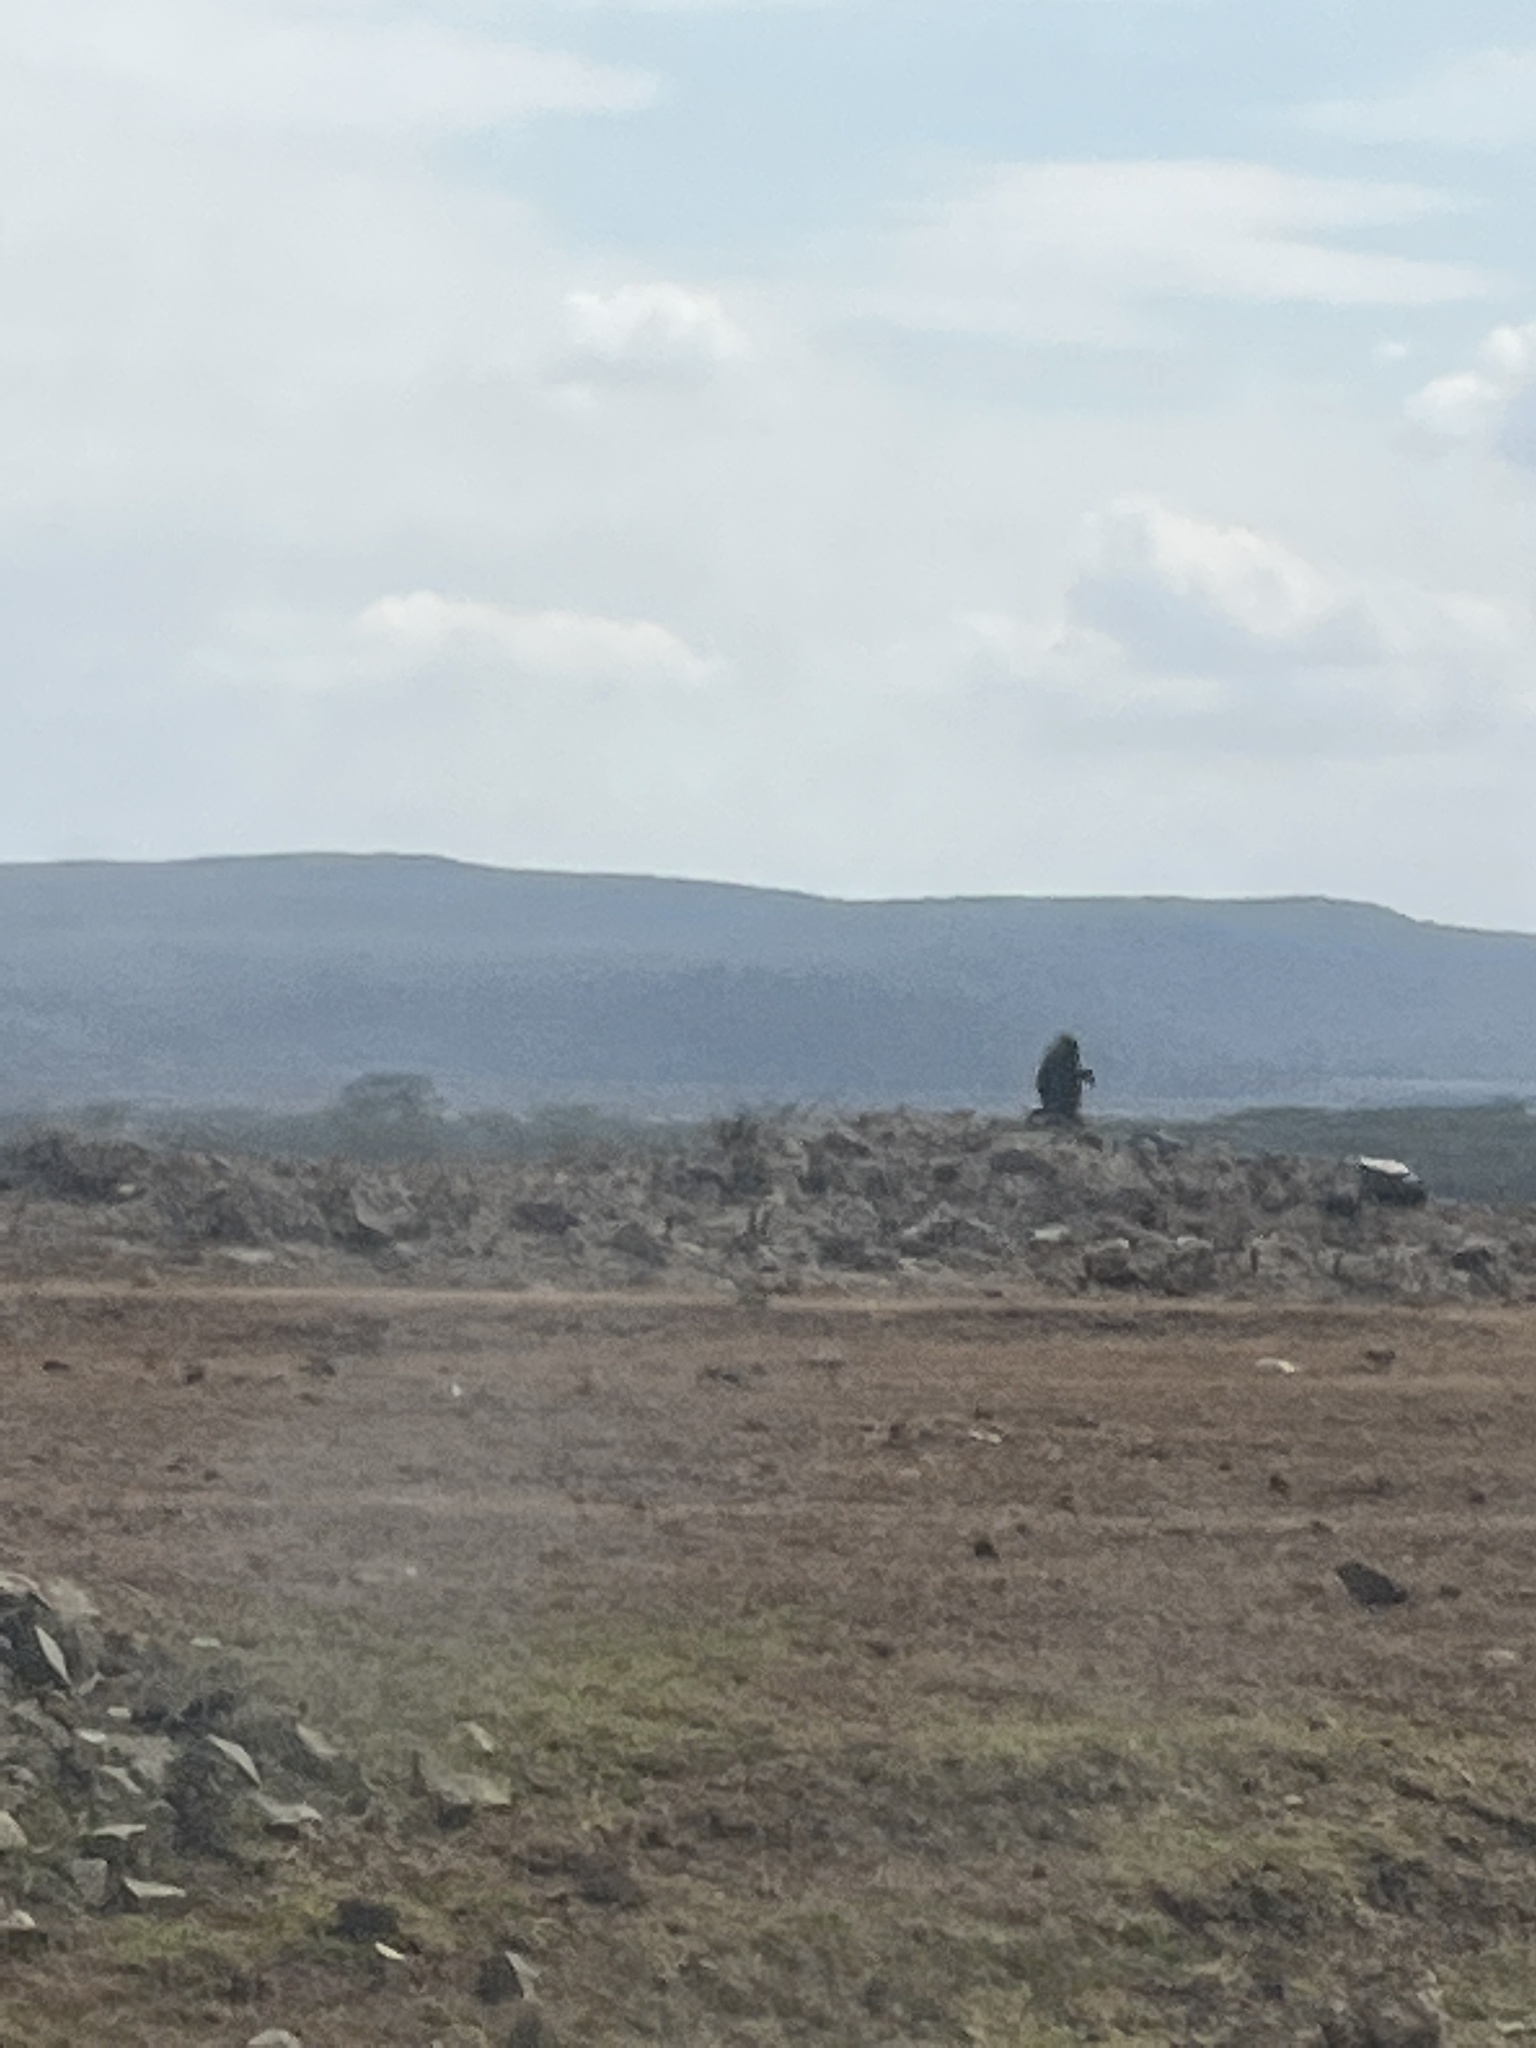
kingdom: Animalia
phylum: Chordata
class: Mammalia
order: Primates
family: Cercopithecidae
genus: Papio
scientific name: Papio anubis
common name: Olive baboon
